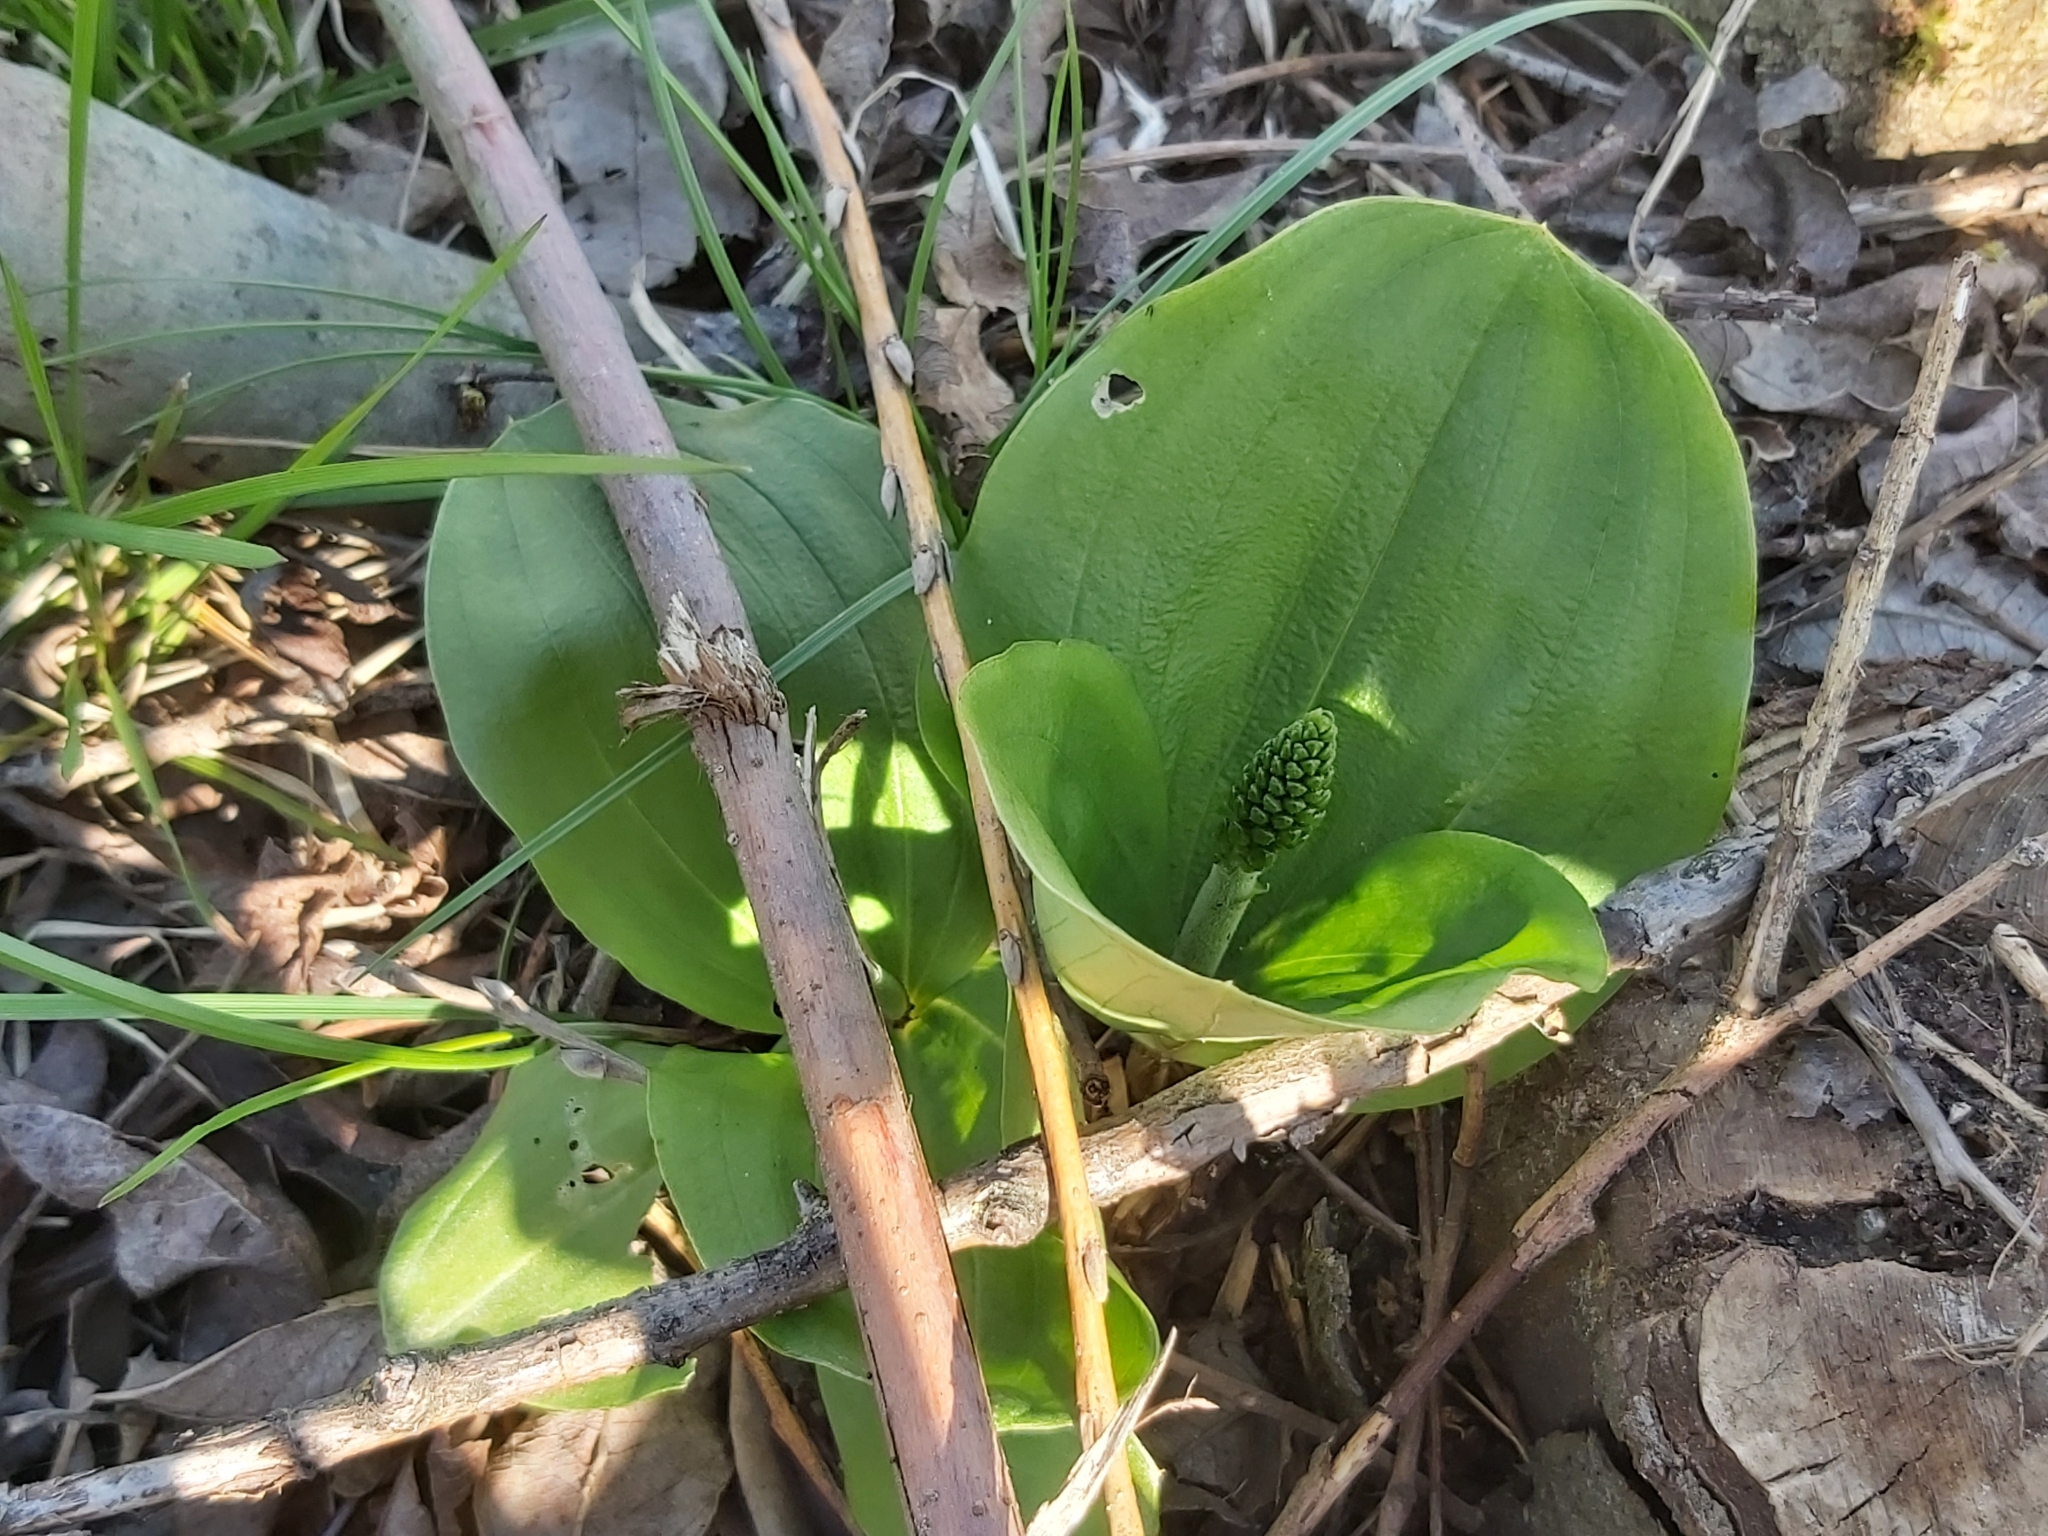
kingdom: Plantae
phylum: Tracheophyta
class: Liliopsida
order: Asparagales
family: Orchidaceae
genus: Neottia
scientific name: Neottia ovata
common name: Common twayblade
